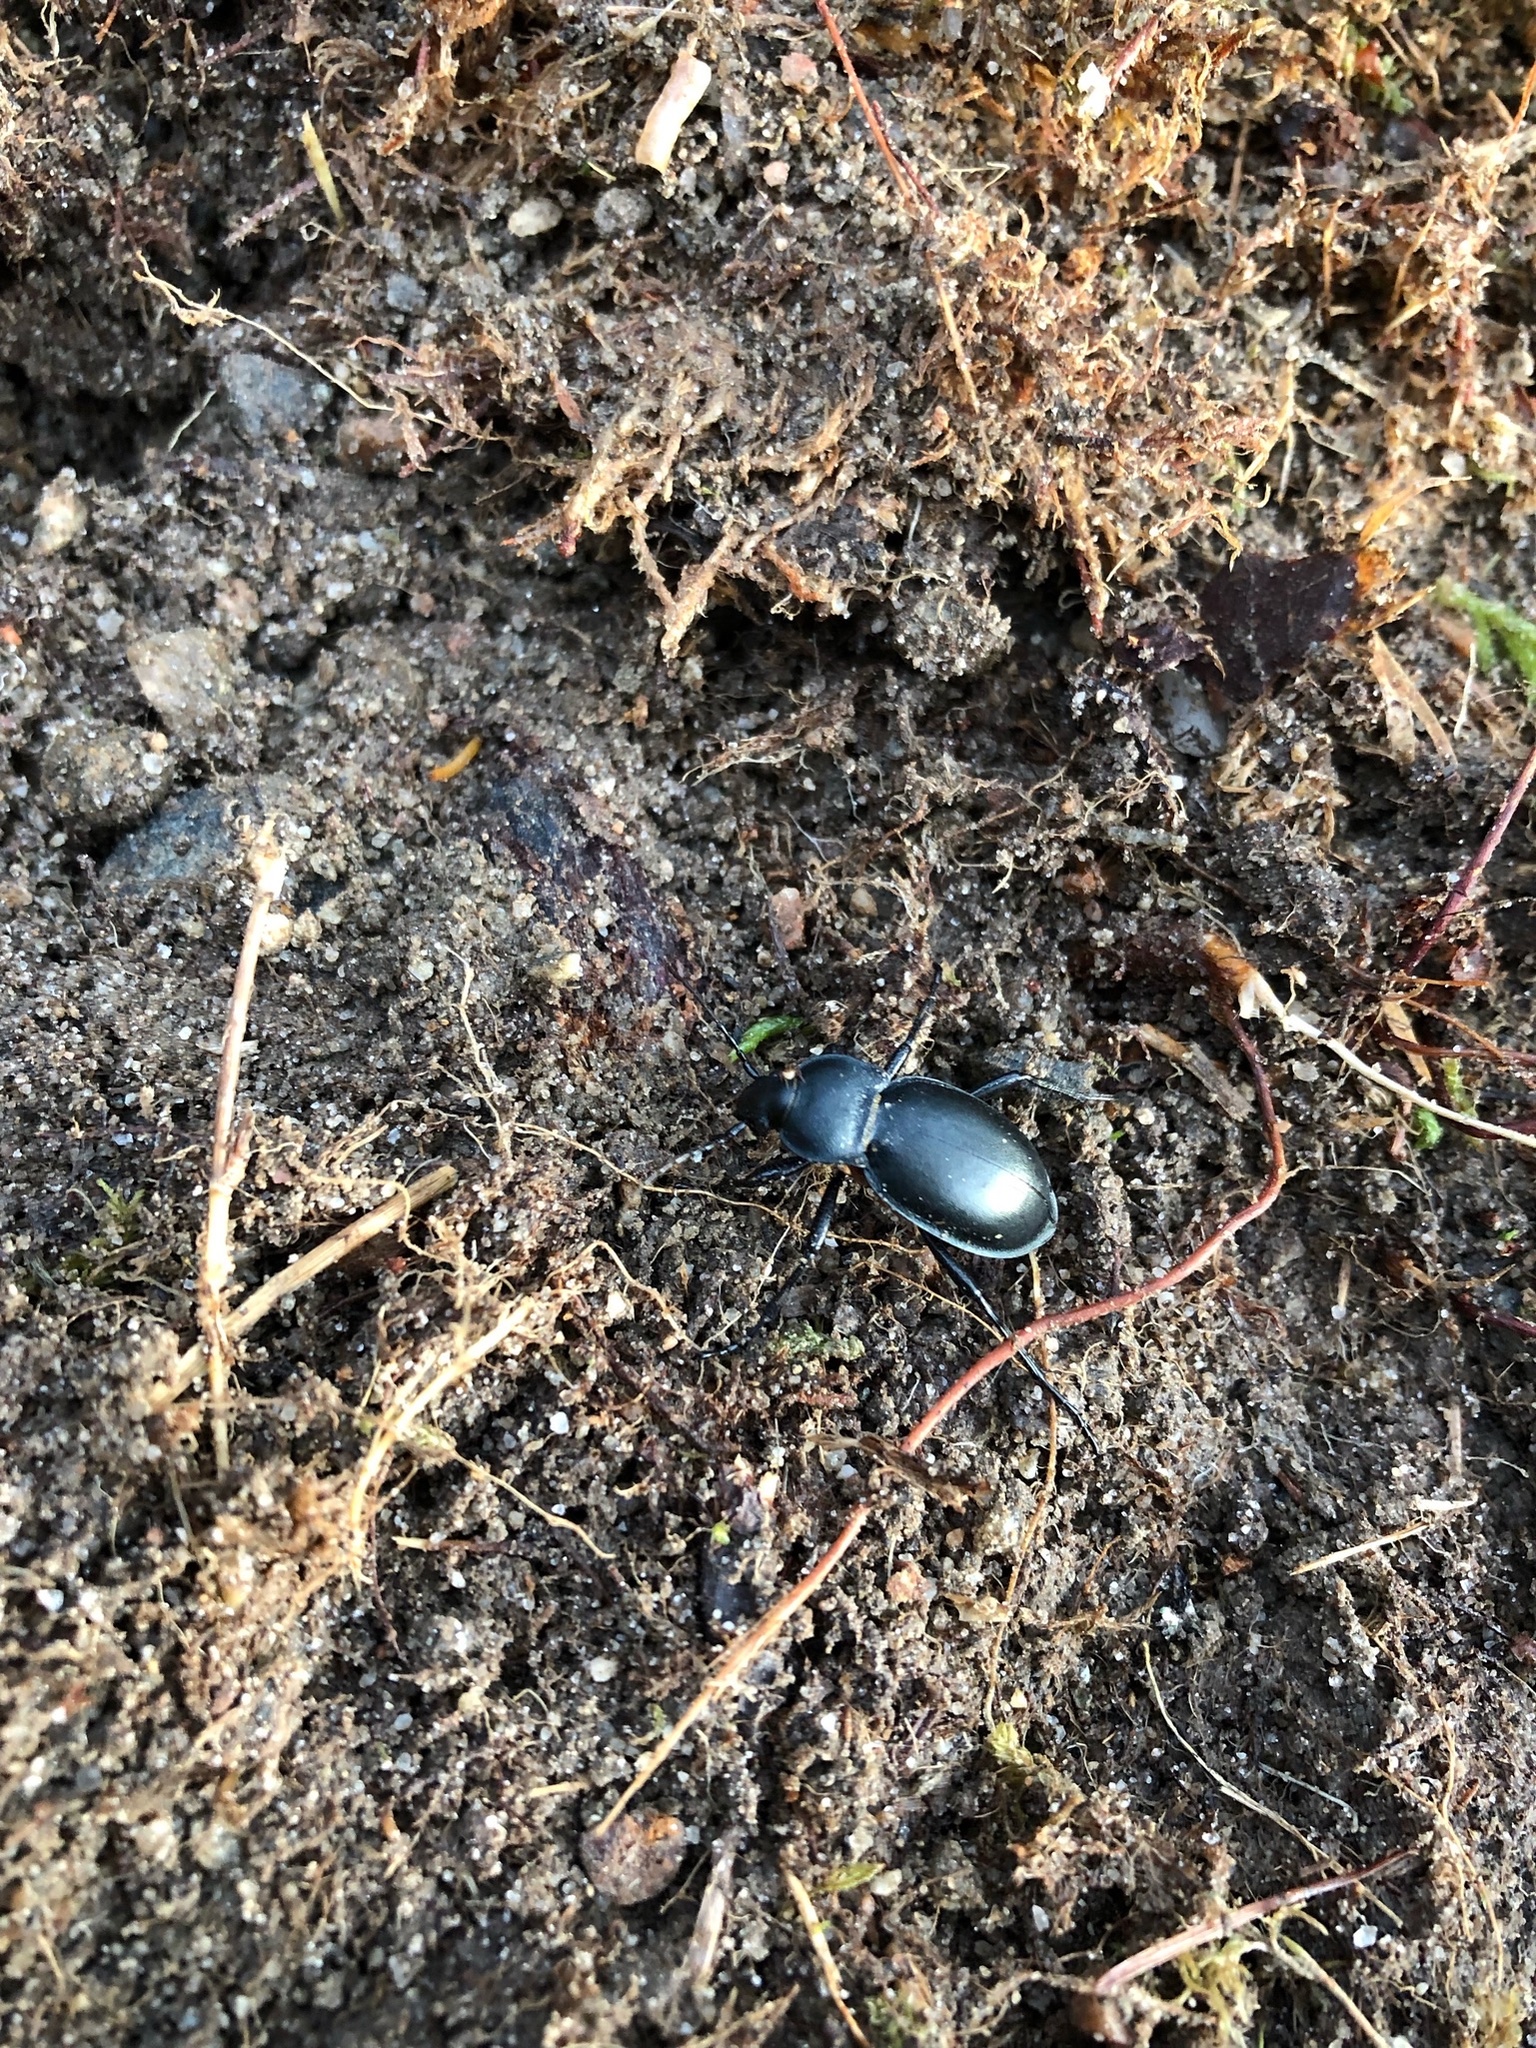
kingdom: Animalia
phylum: Arthropoda
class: Insecta
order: Coleoptera
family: Carabidae
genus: Carabus
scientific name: Carabus glabratus
